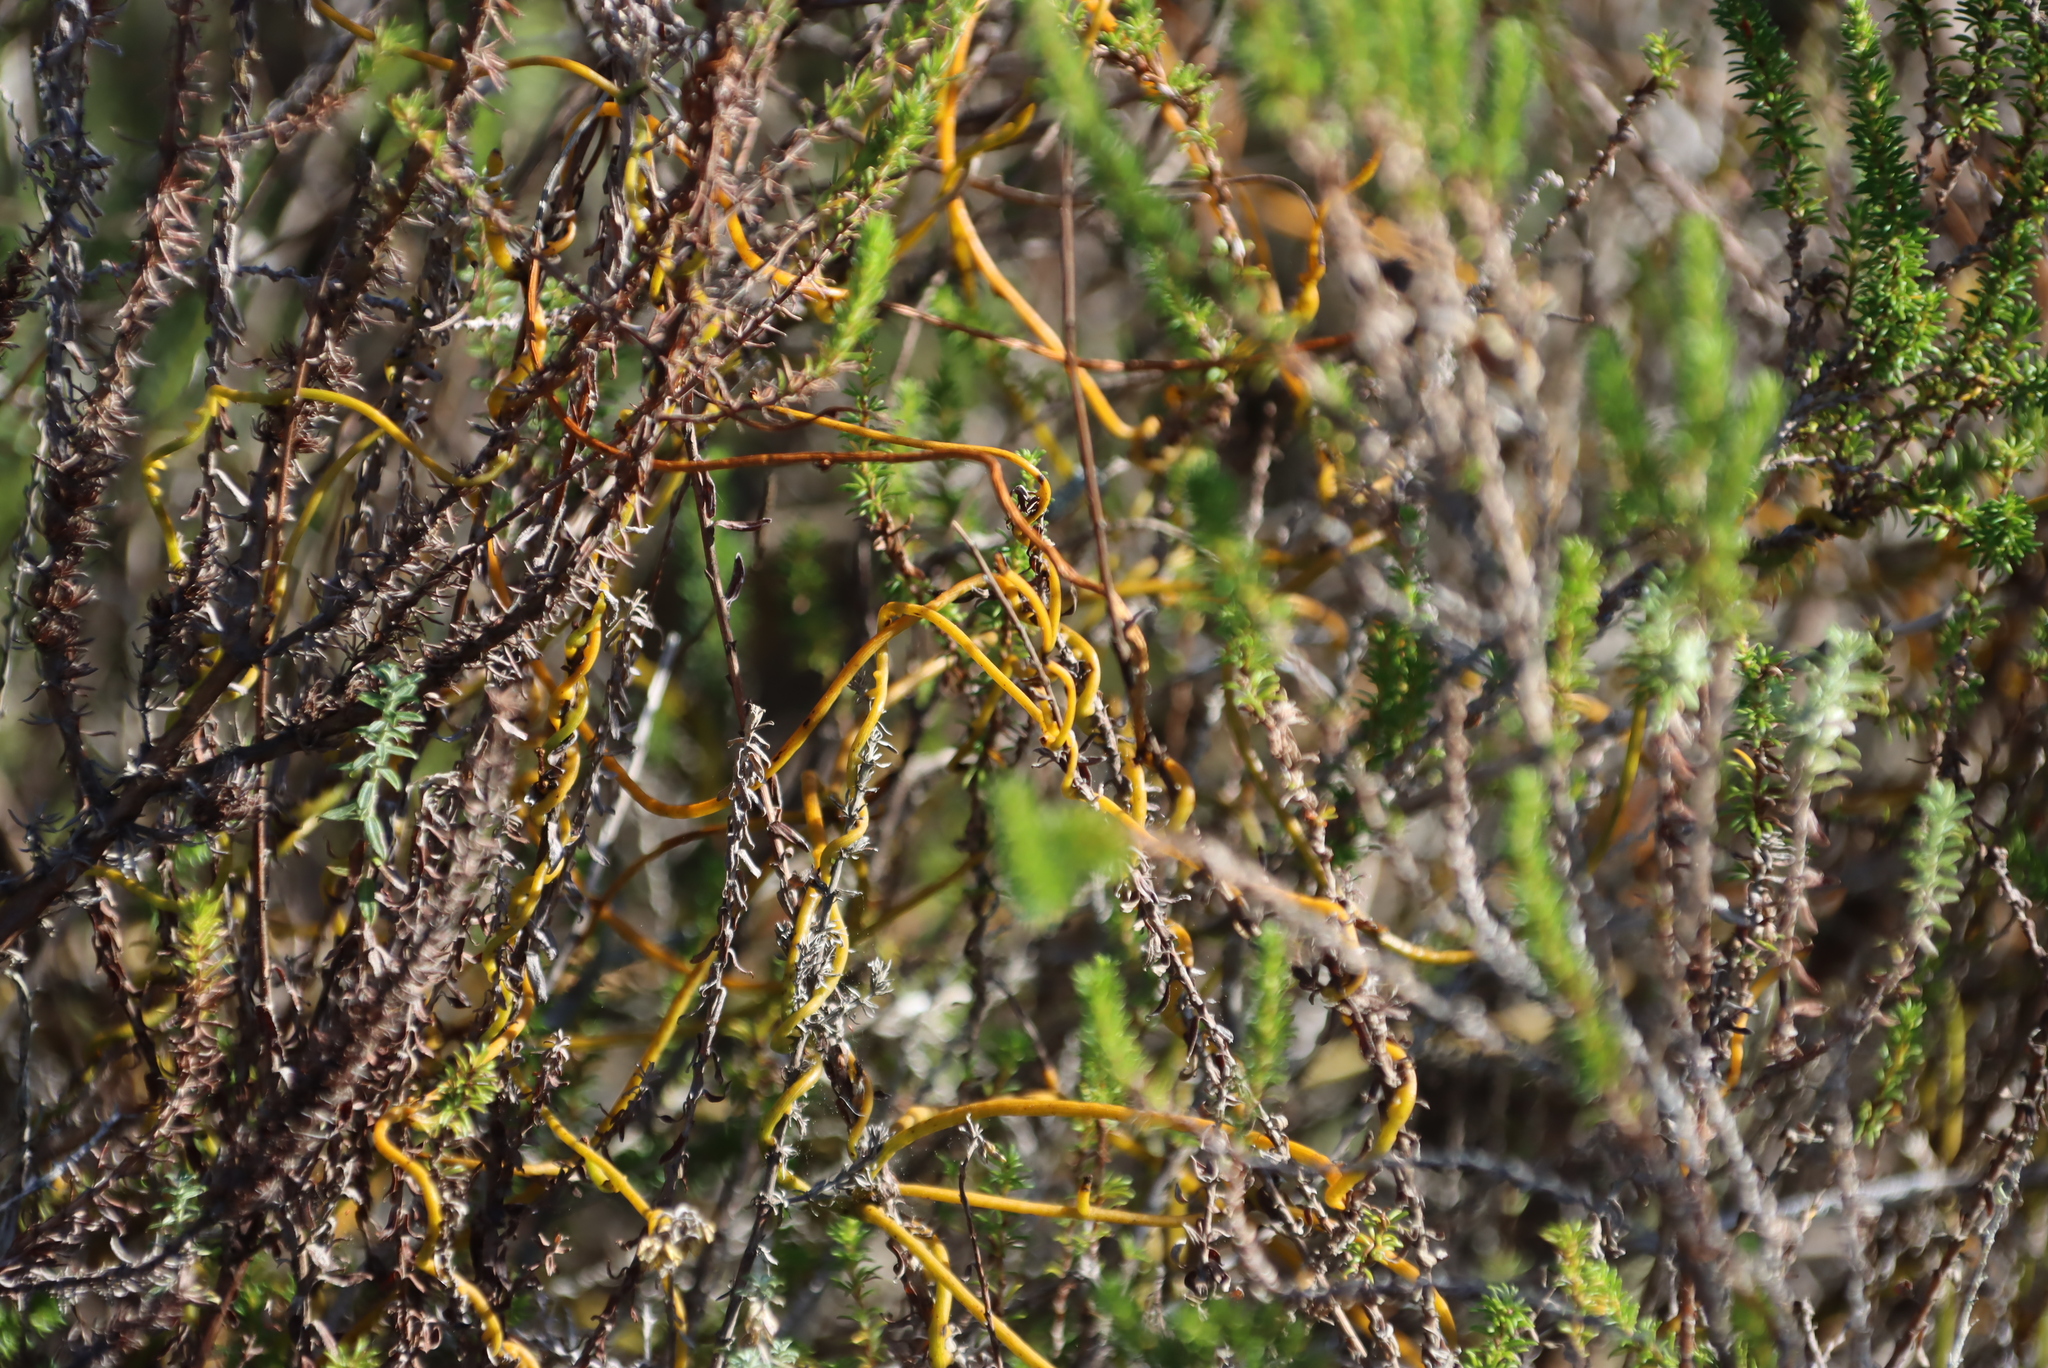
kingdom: Plantae
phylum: Tracheophyta
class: Magnoliopsida
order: Laurales
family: Lauraceae
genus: Cassytha
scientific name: Cassytha ciliolata
